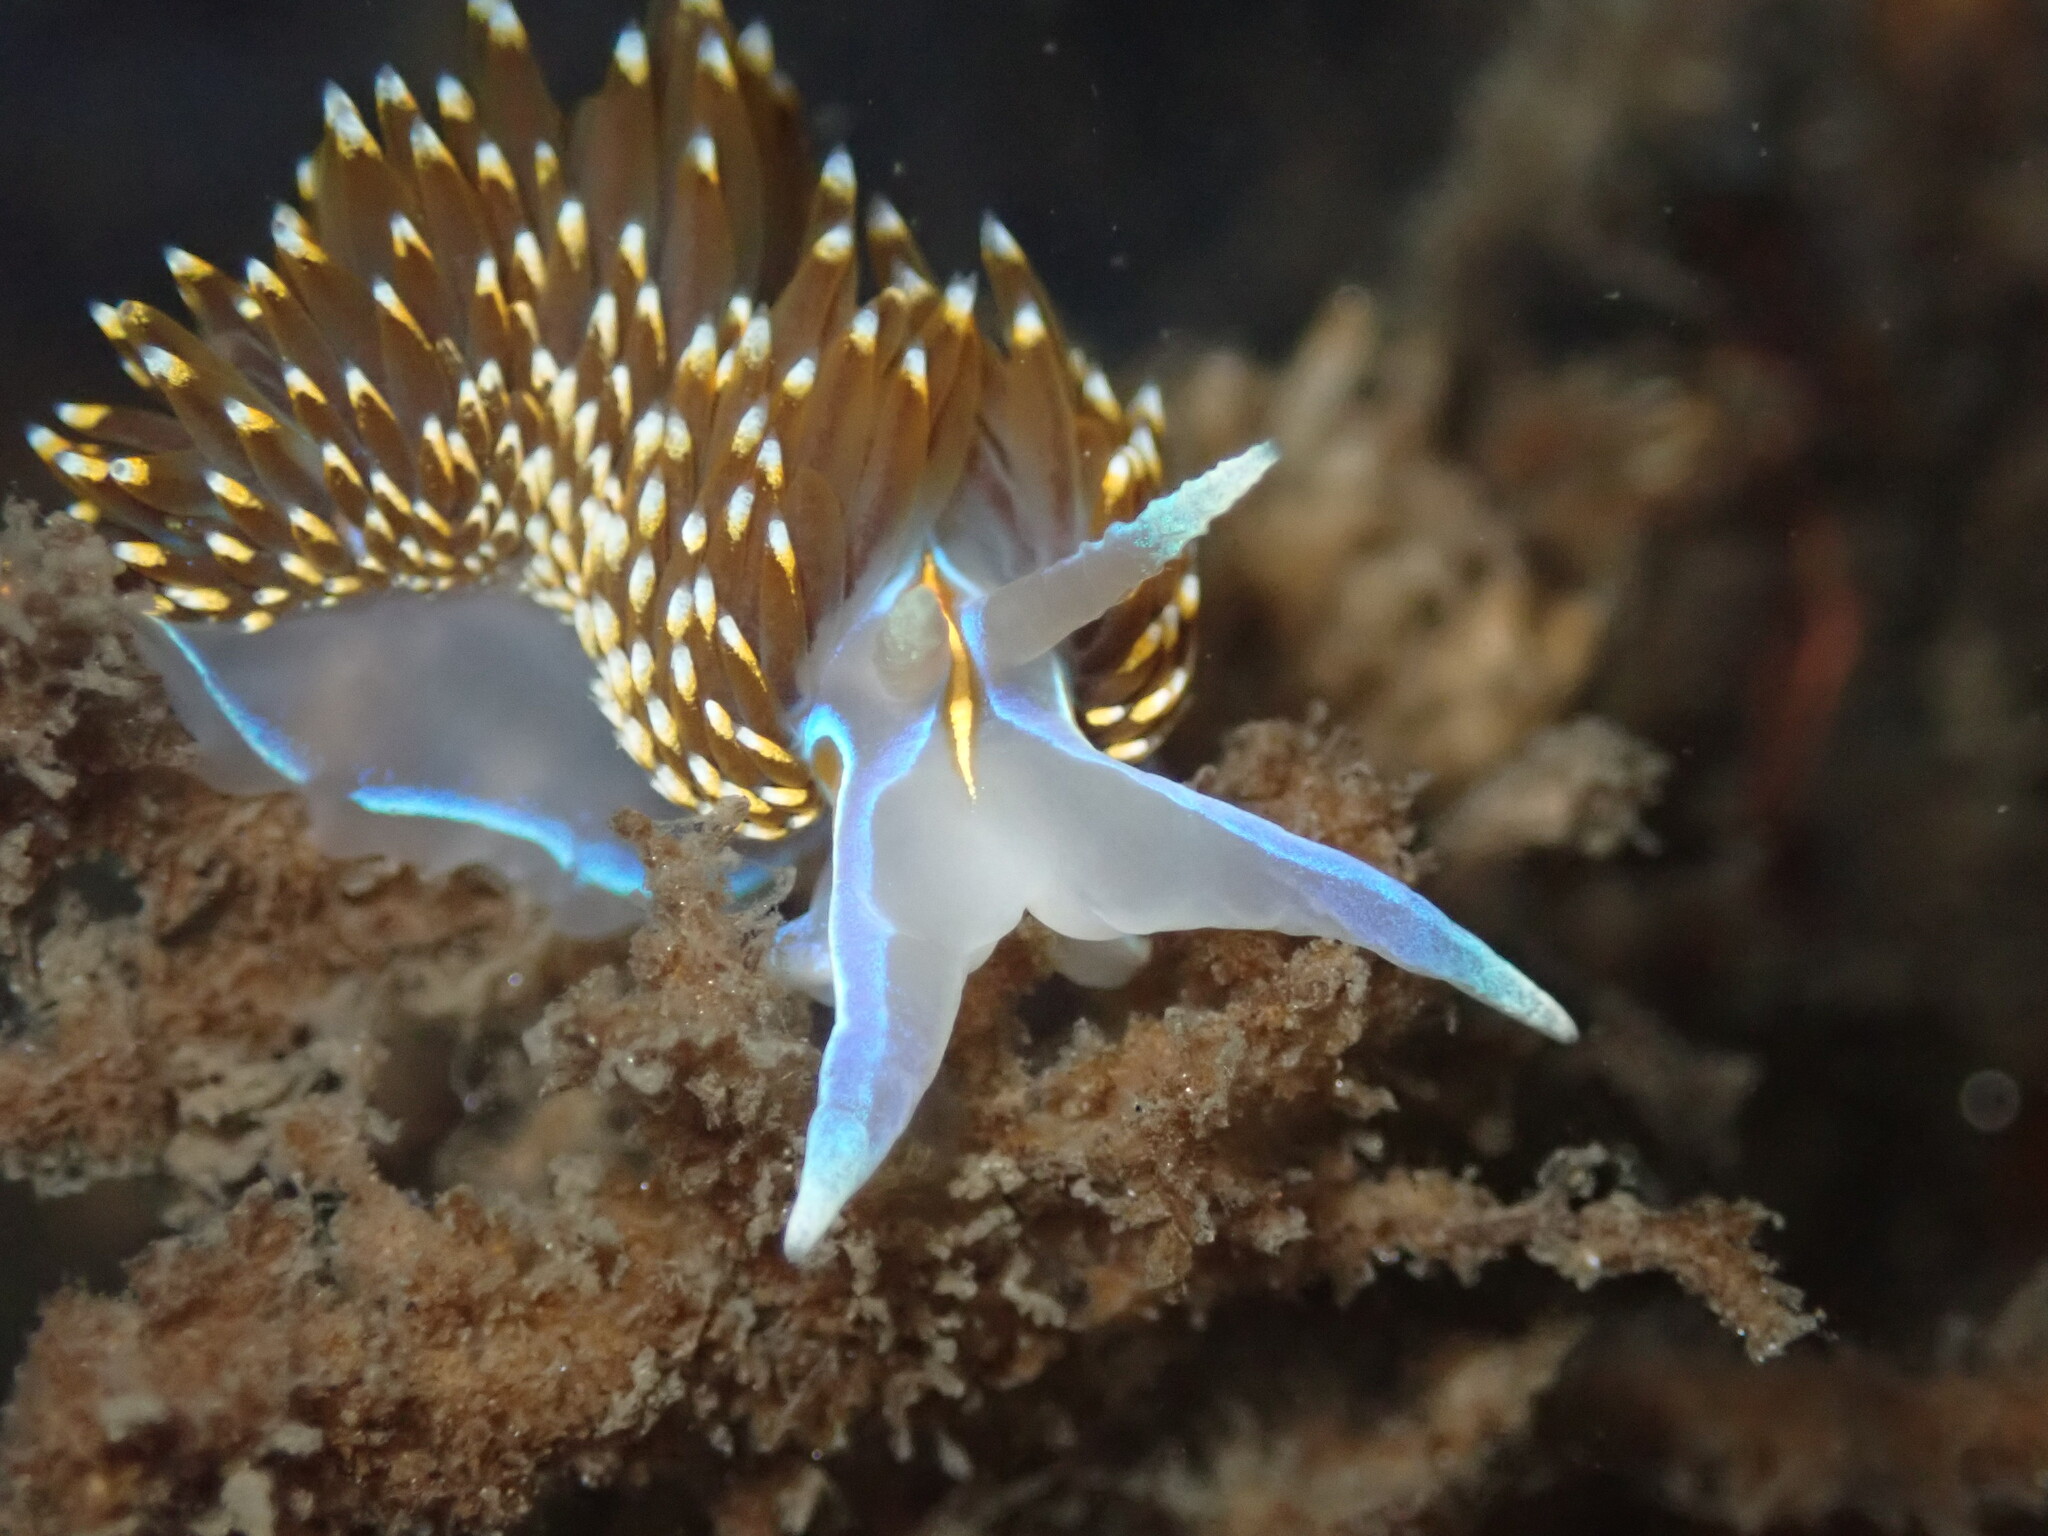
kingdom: Animalia
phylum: Mollusca
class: Gastropoda
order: Nudibranchia
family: Myrrhinidae
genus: Hermissenda
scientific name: Hermissenda opalescens
